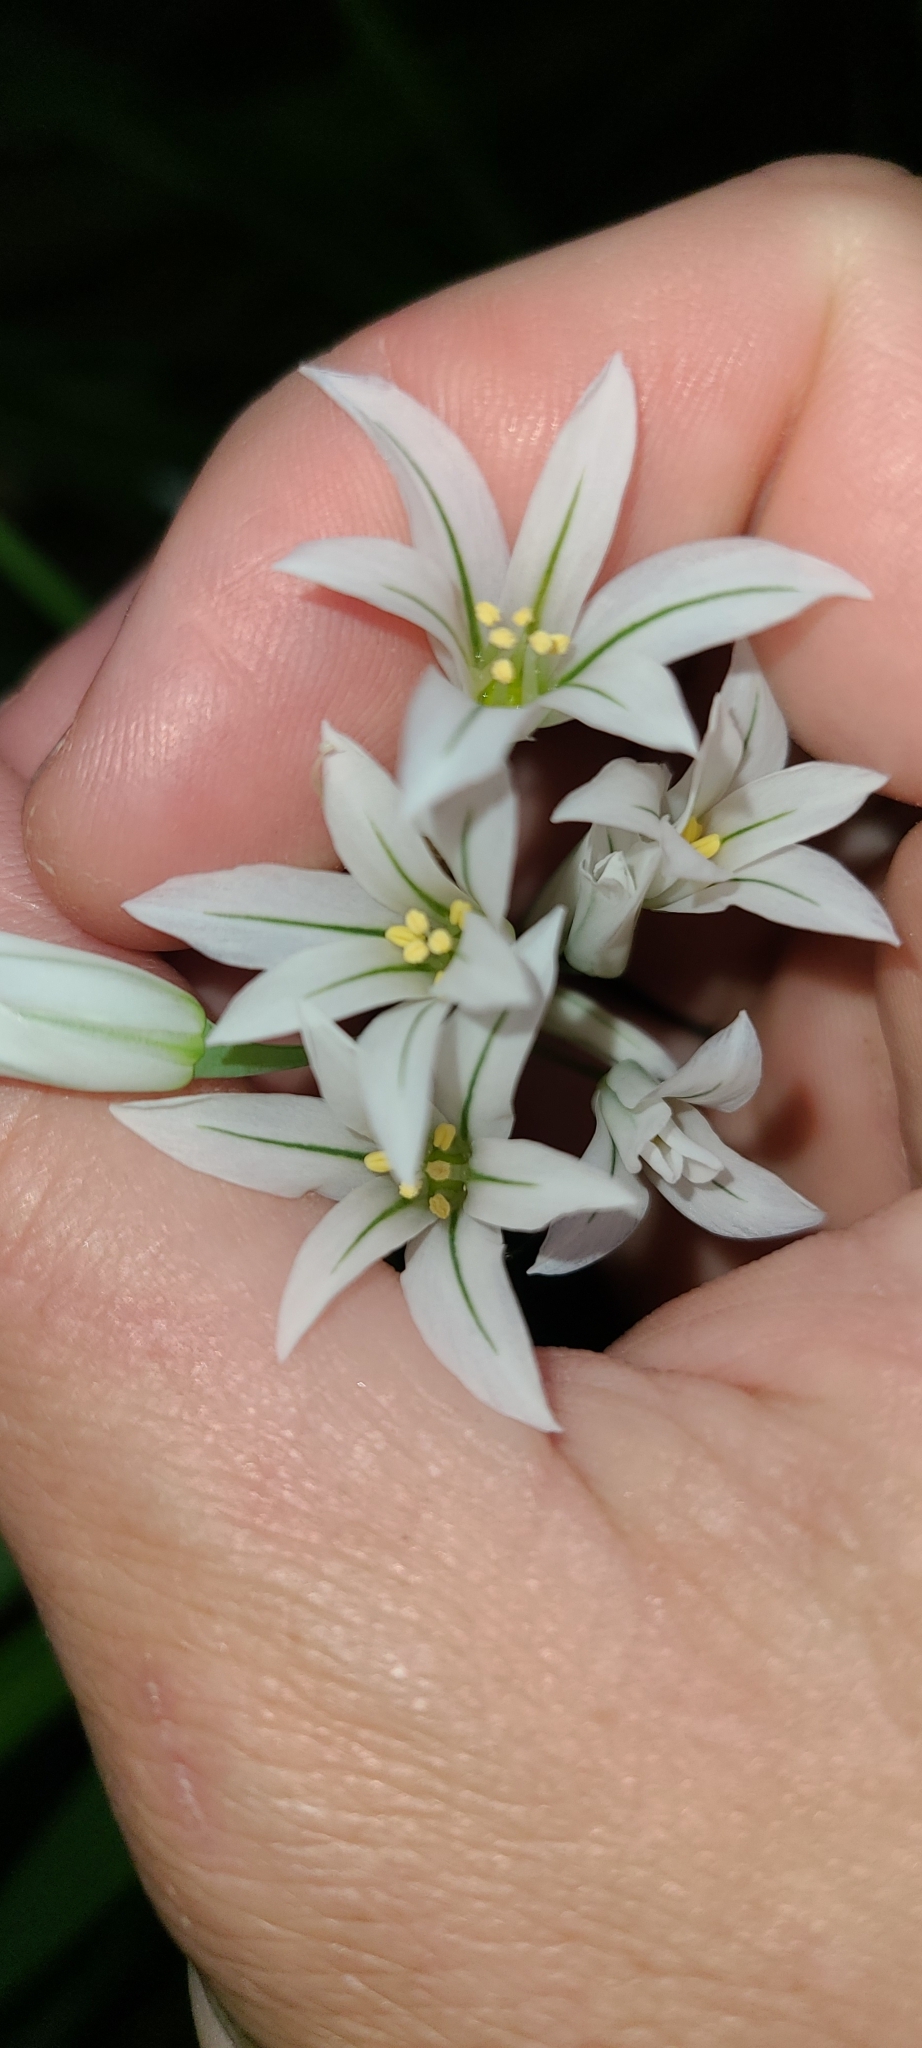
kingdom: Plantae
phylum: Tracheophyta
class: Liliopsida
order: Asparagales
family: Amaryllidaceae
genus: Allium
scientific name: Allium triquetrum
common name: Three-cornered garlic
